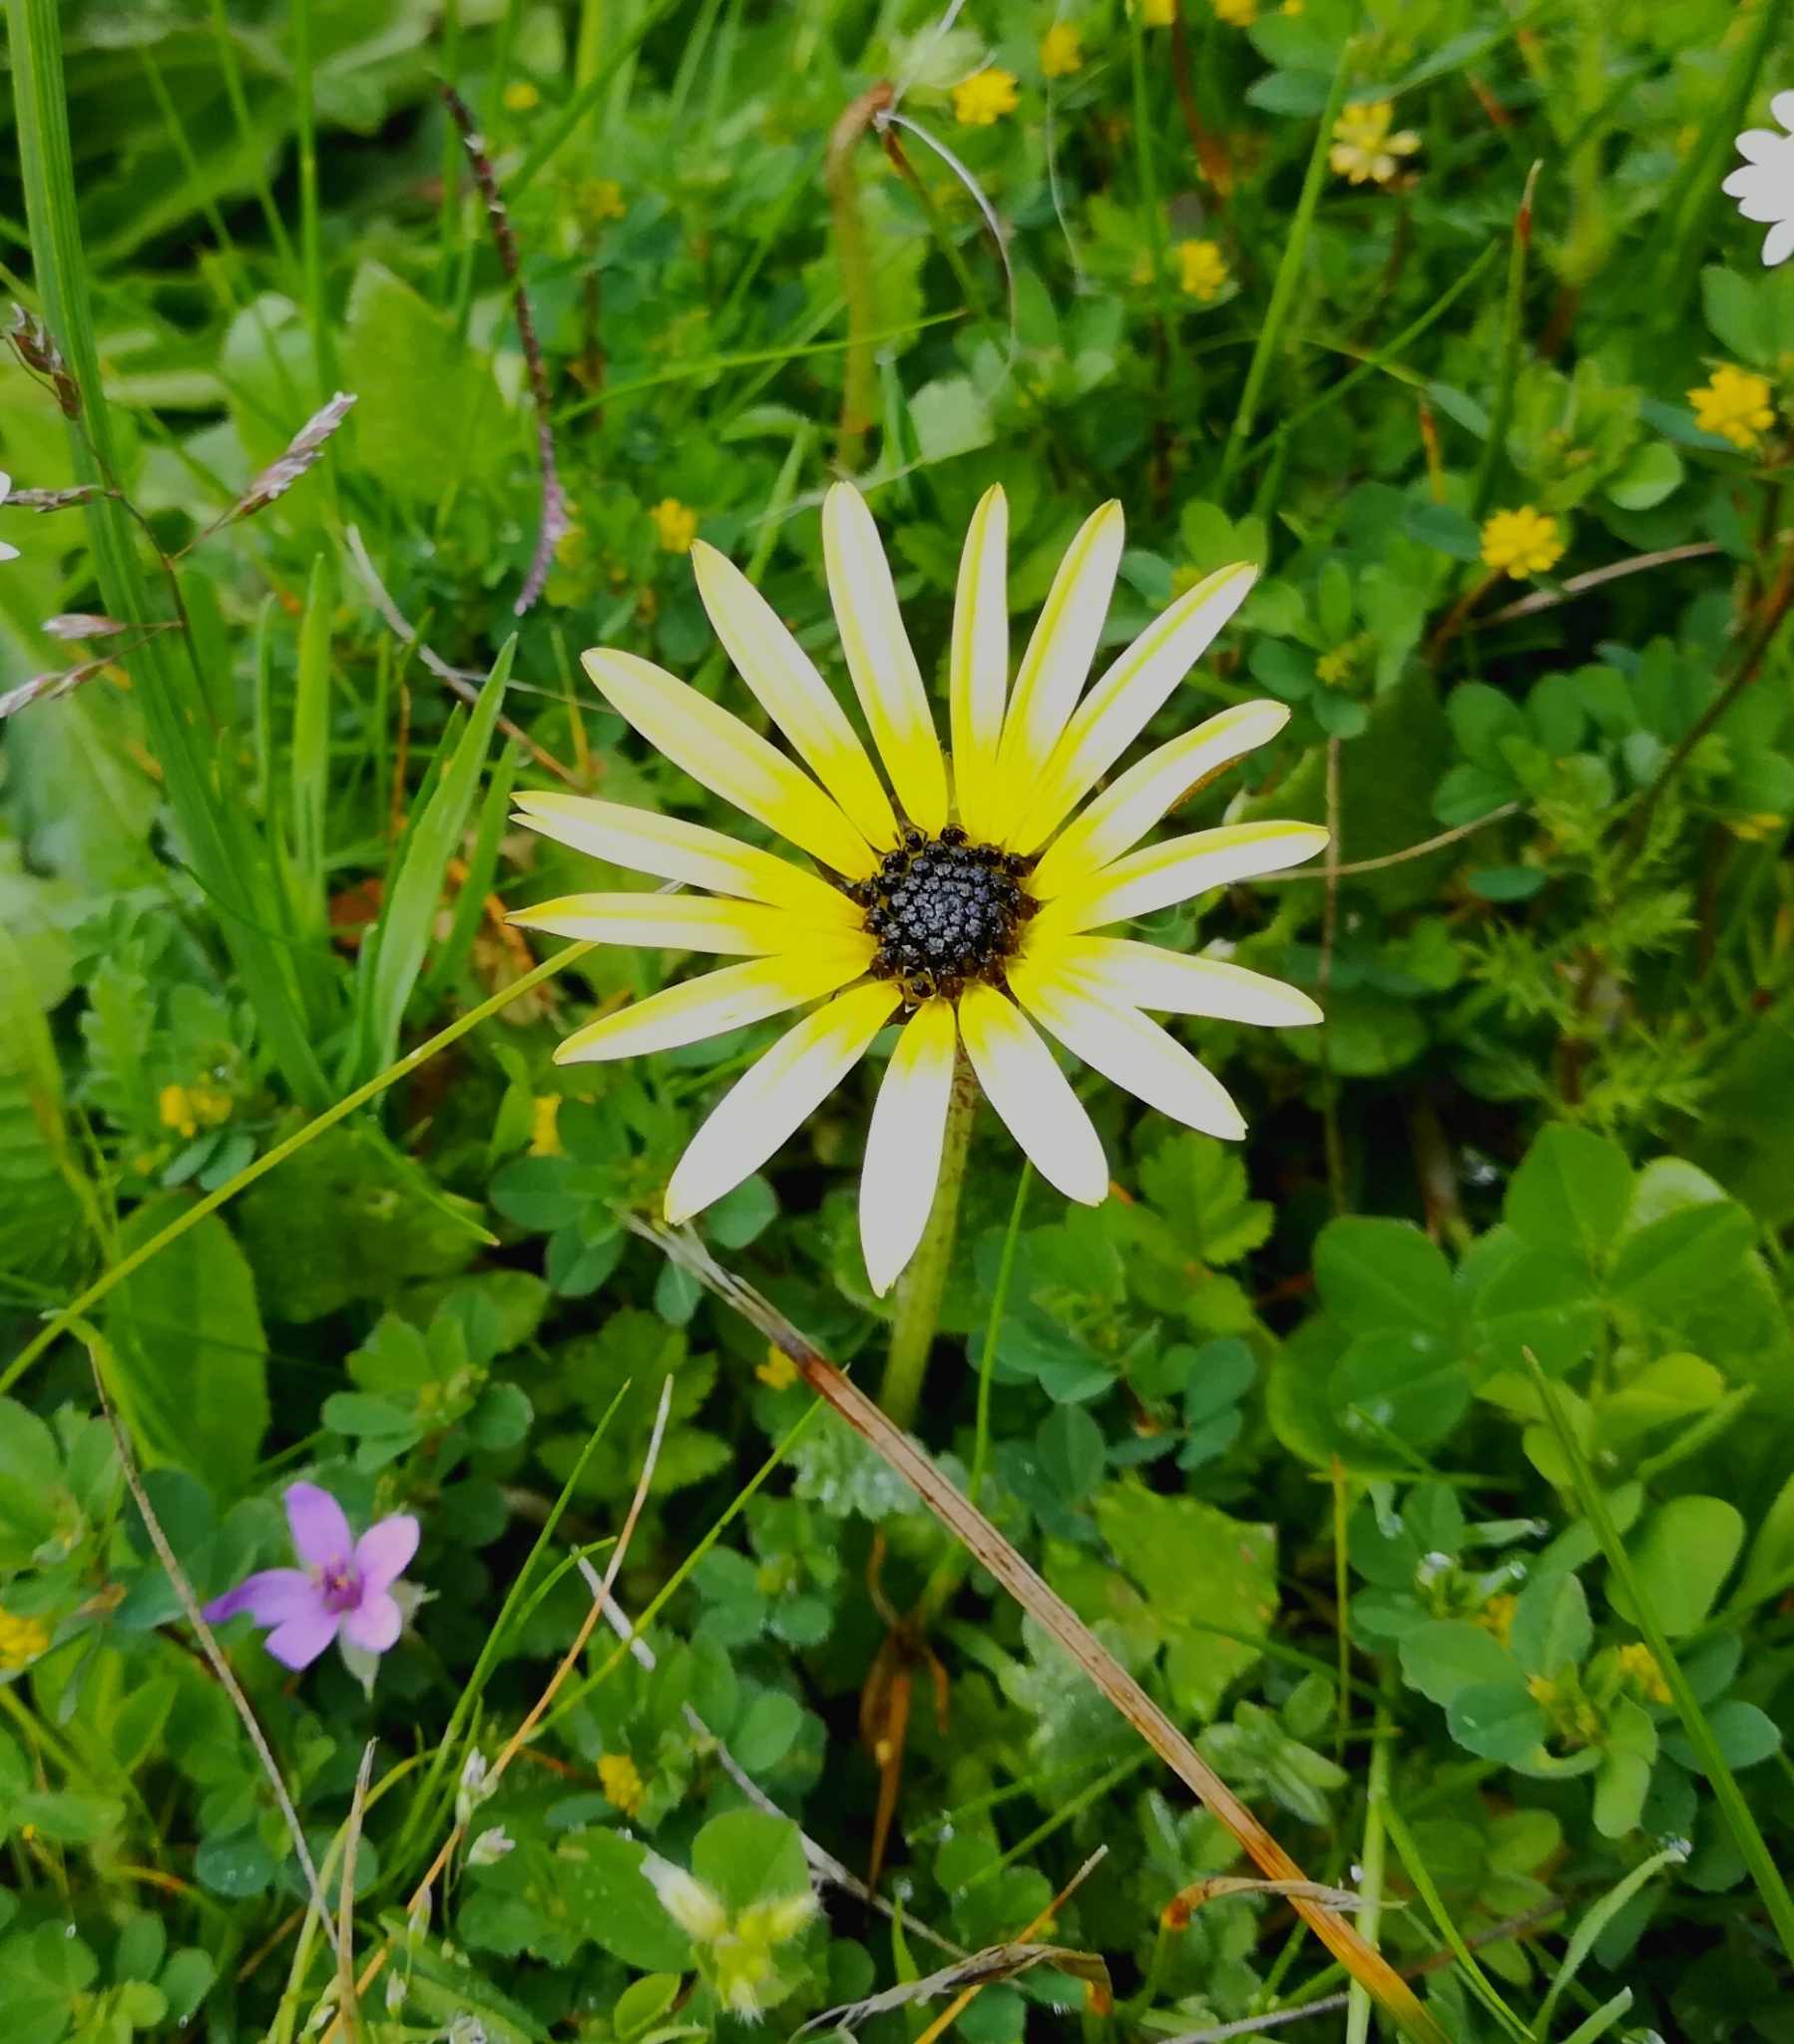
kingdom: Plantae
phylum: Tracheophyta
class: Magnoliopsida
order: Asterales
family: Asteraceae
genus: Arctotheca
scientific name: Arctotheca calendula
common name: Capeweed
